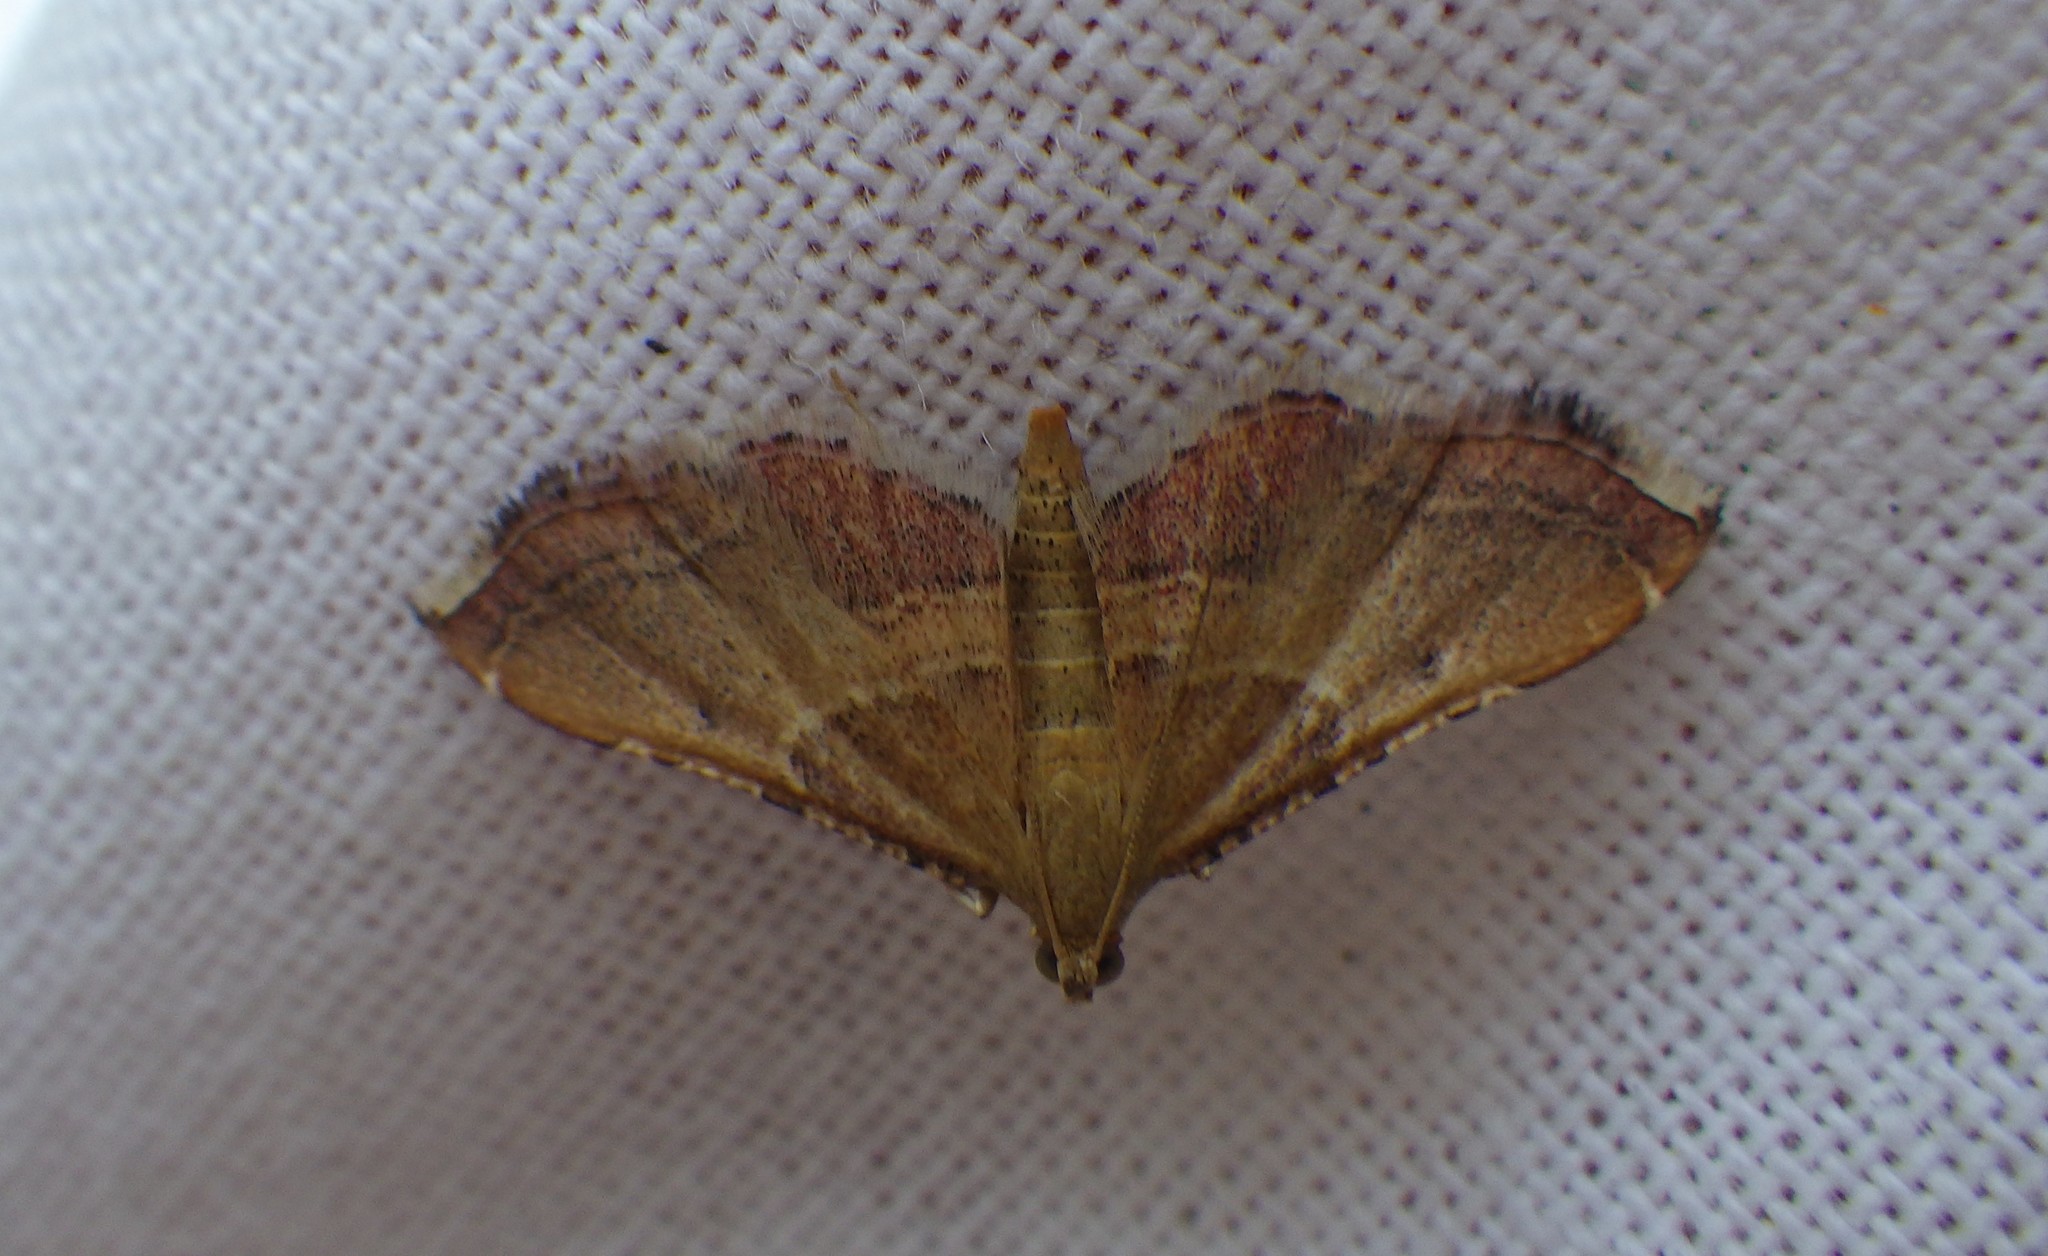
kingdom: Animalia
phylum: Arthropoda
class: Insecta
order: Lepidoptera
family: Pyralidae
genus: Endotricha
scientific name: Endotricha flammealis
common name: Rosy tabby
